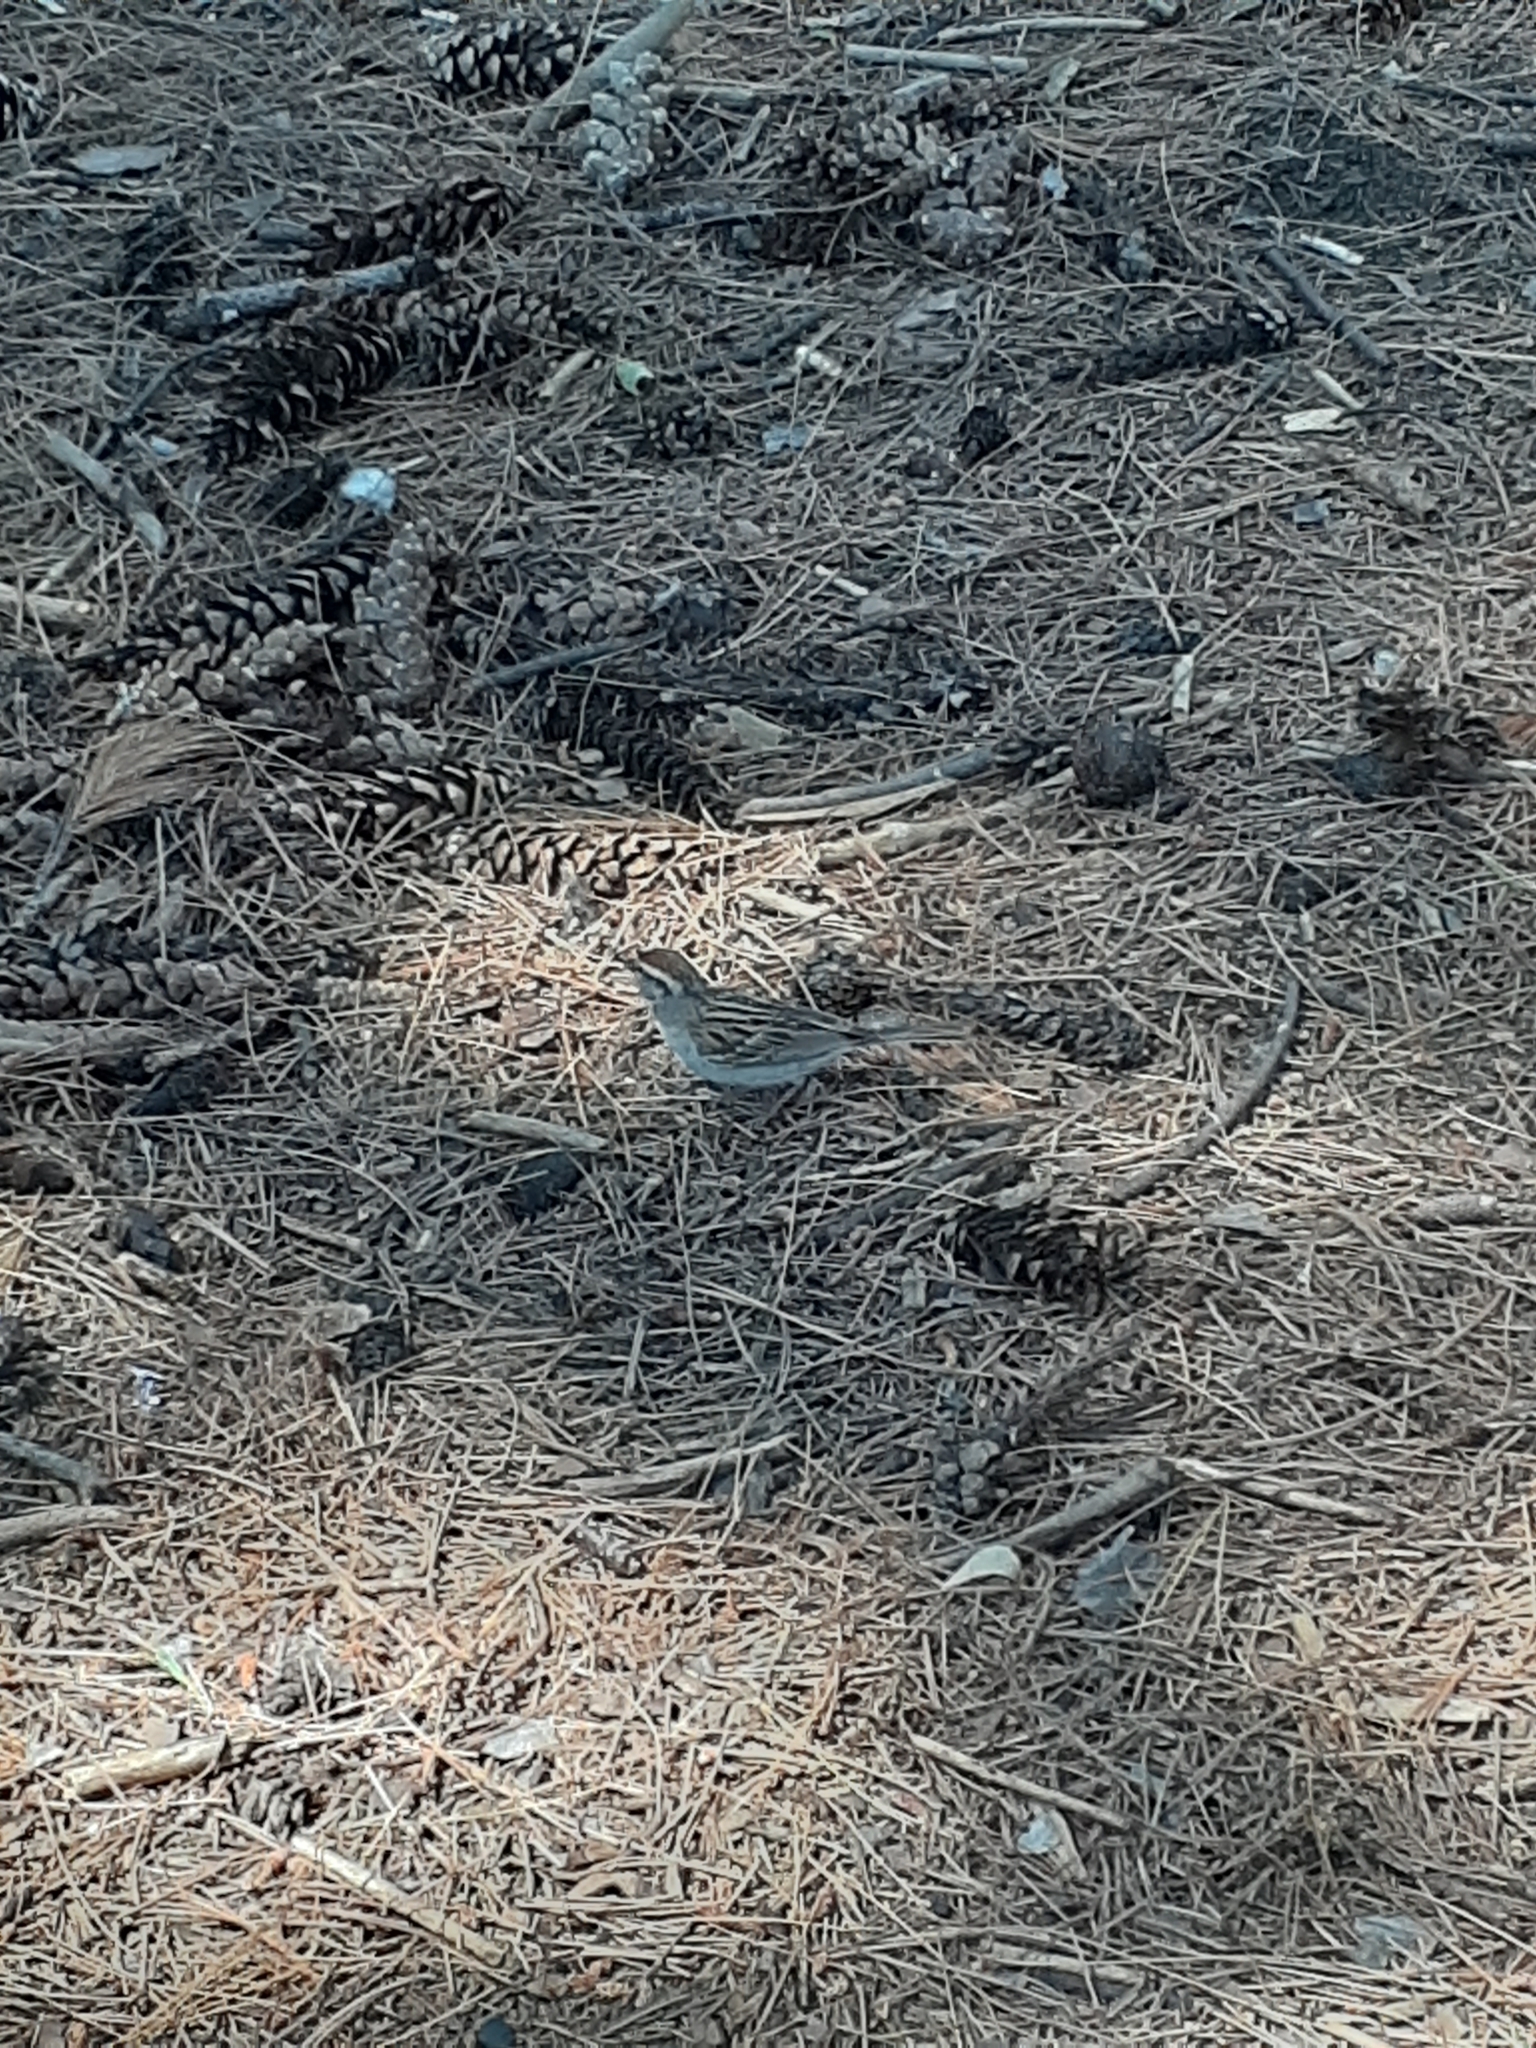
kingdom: Animalia
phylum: Chordata
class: Aves
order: Passeriformes
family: Passerellidae
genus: Spizella
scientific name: Spizella passerina
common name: Chipping sparrow
